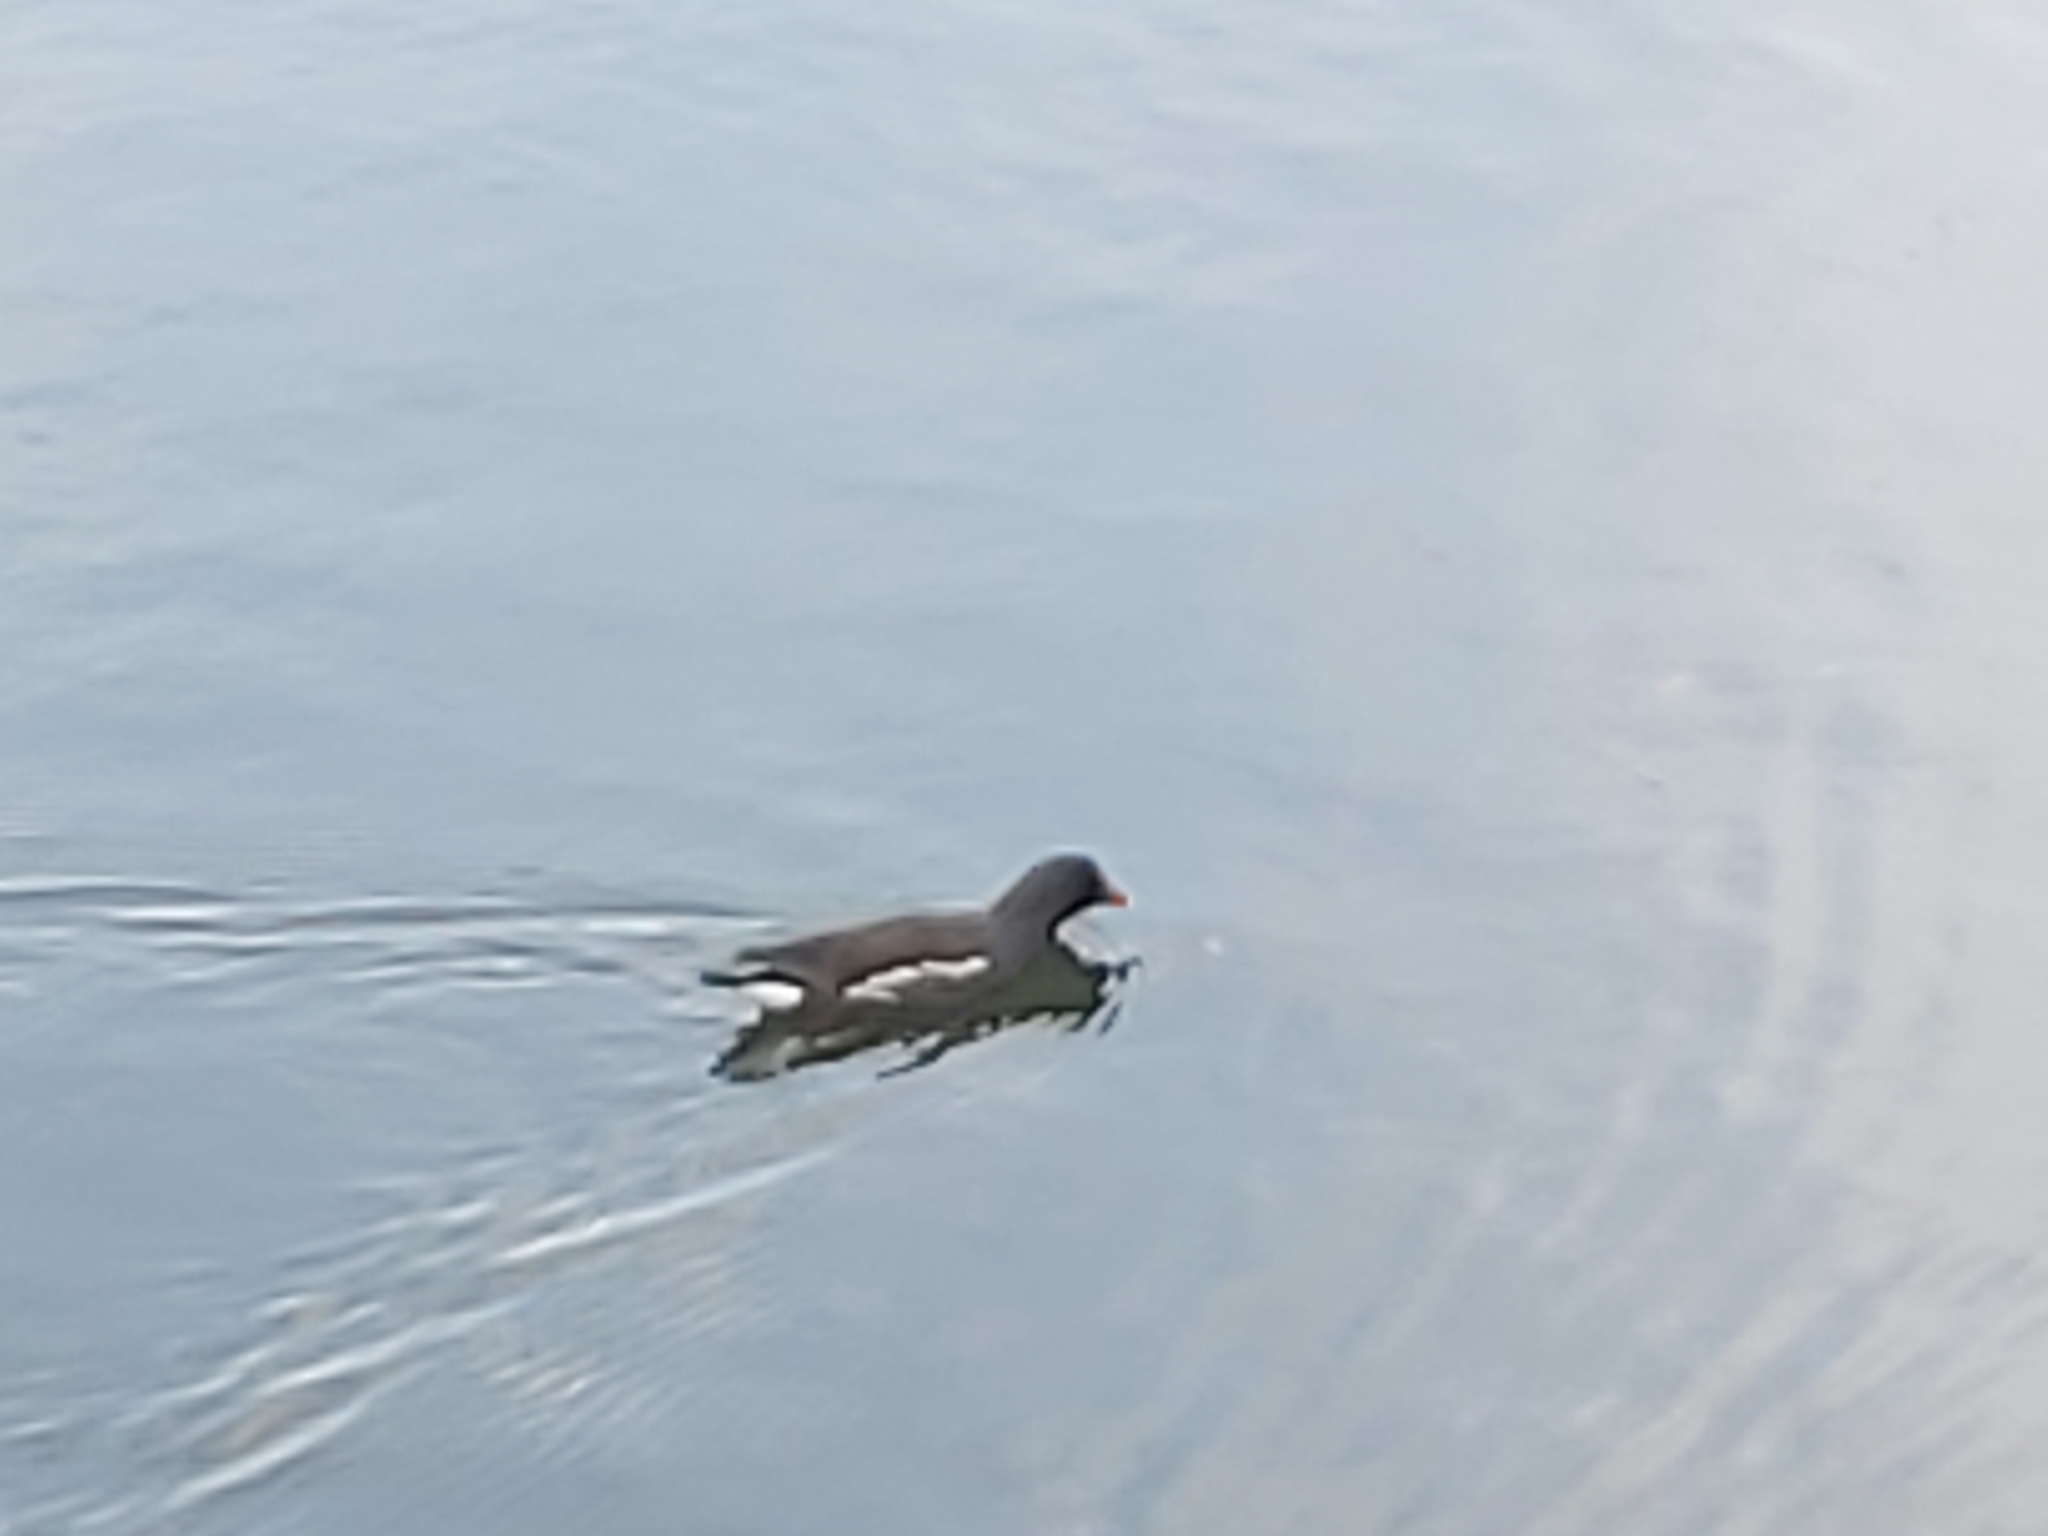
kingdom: Animalia
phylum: Chordata
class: Aves
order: Gruiformes
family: Rallidae
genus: Gallinula
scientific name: Gallinula chloropus
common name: Common moorhen
